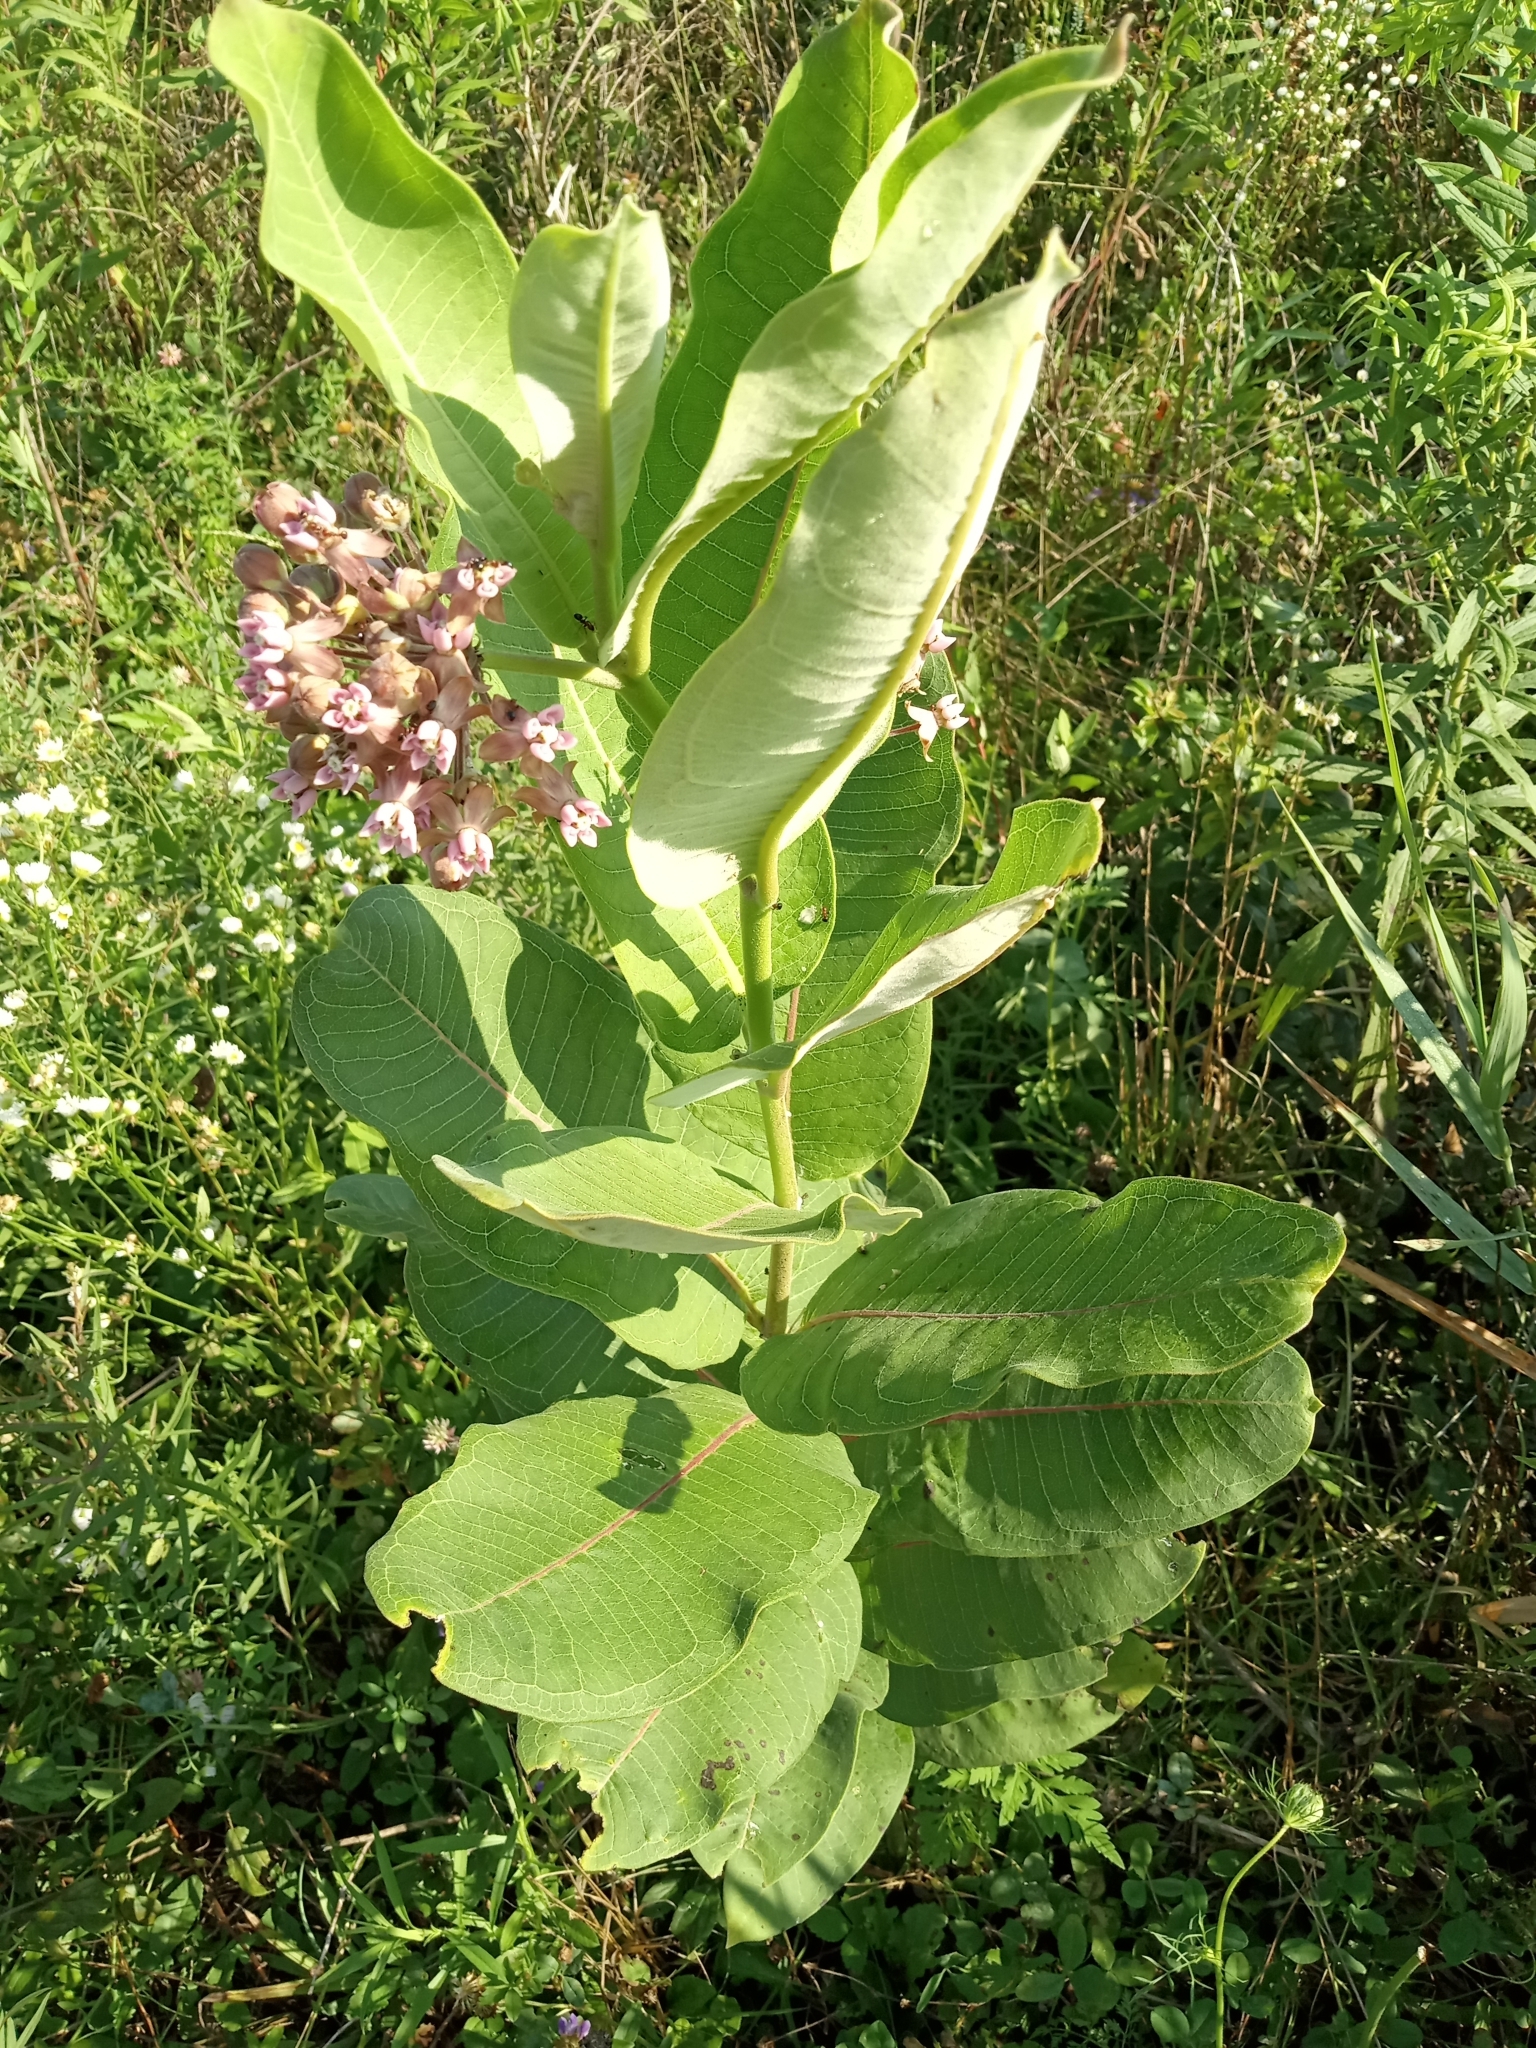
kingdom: Plantae
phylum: Tracheophyta
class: Magnoliopsida
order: Gentianales
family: Apocynaceae
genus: Asclepias
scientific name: Asclepias syriaca
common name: Common milkweed
